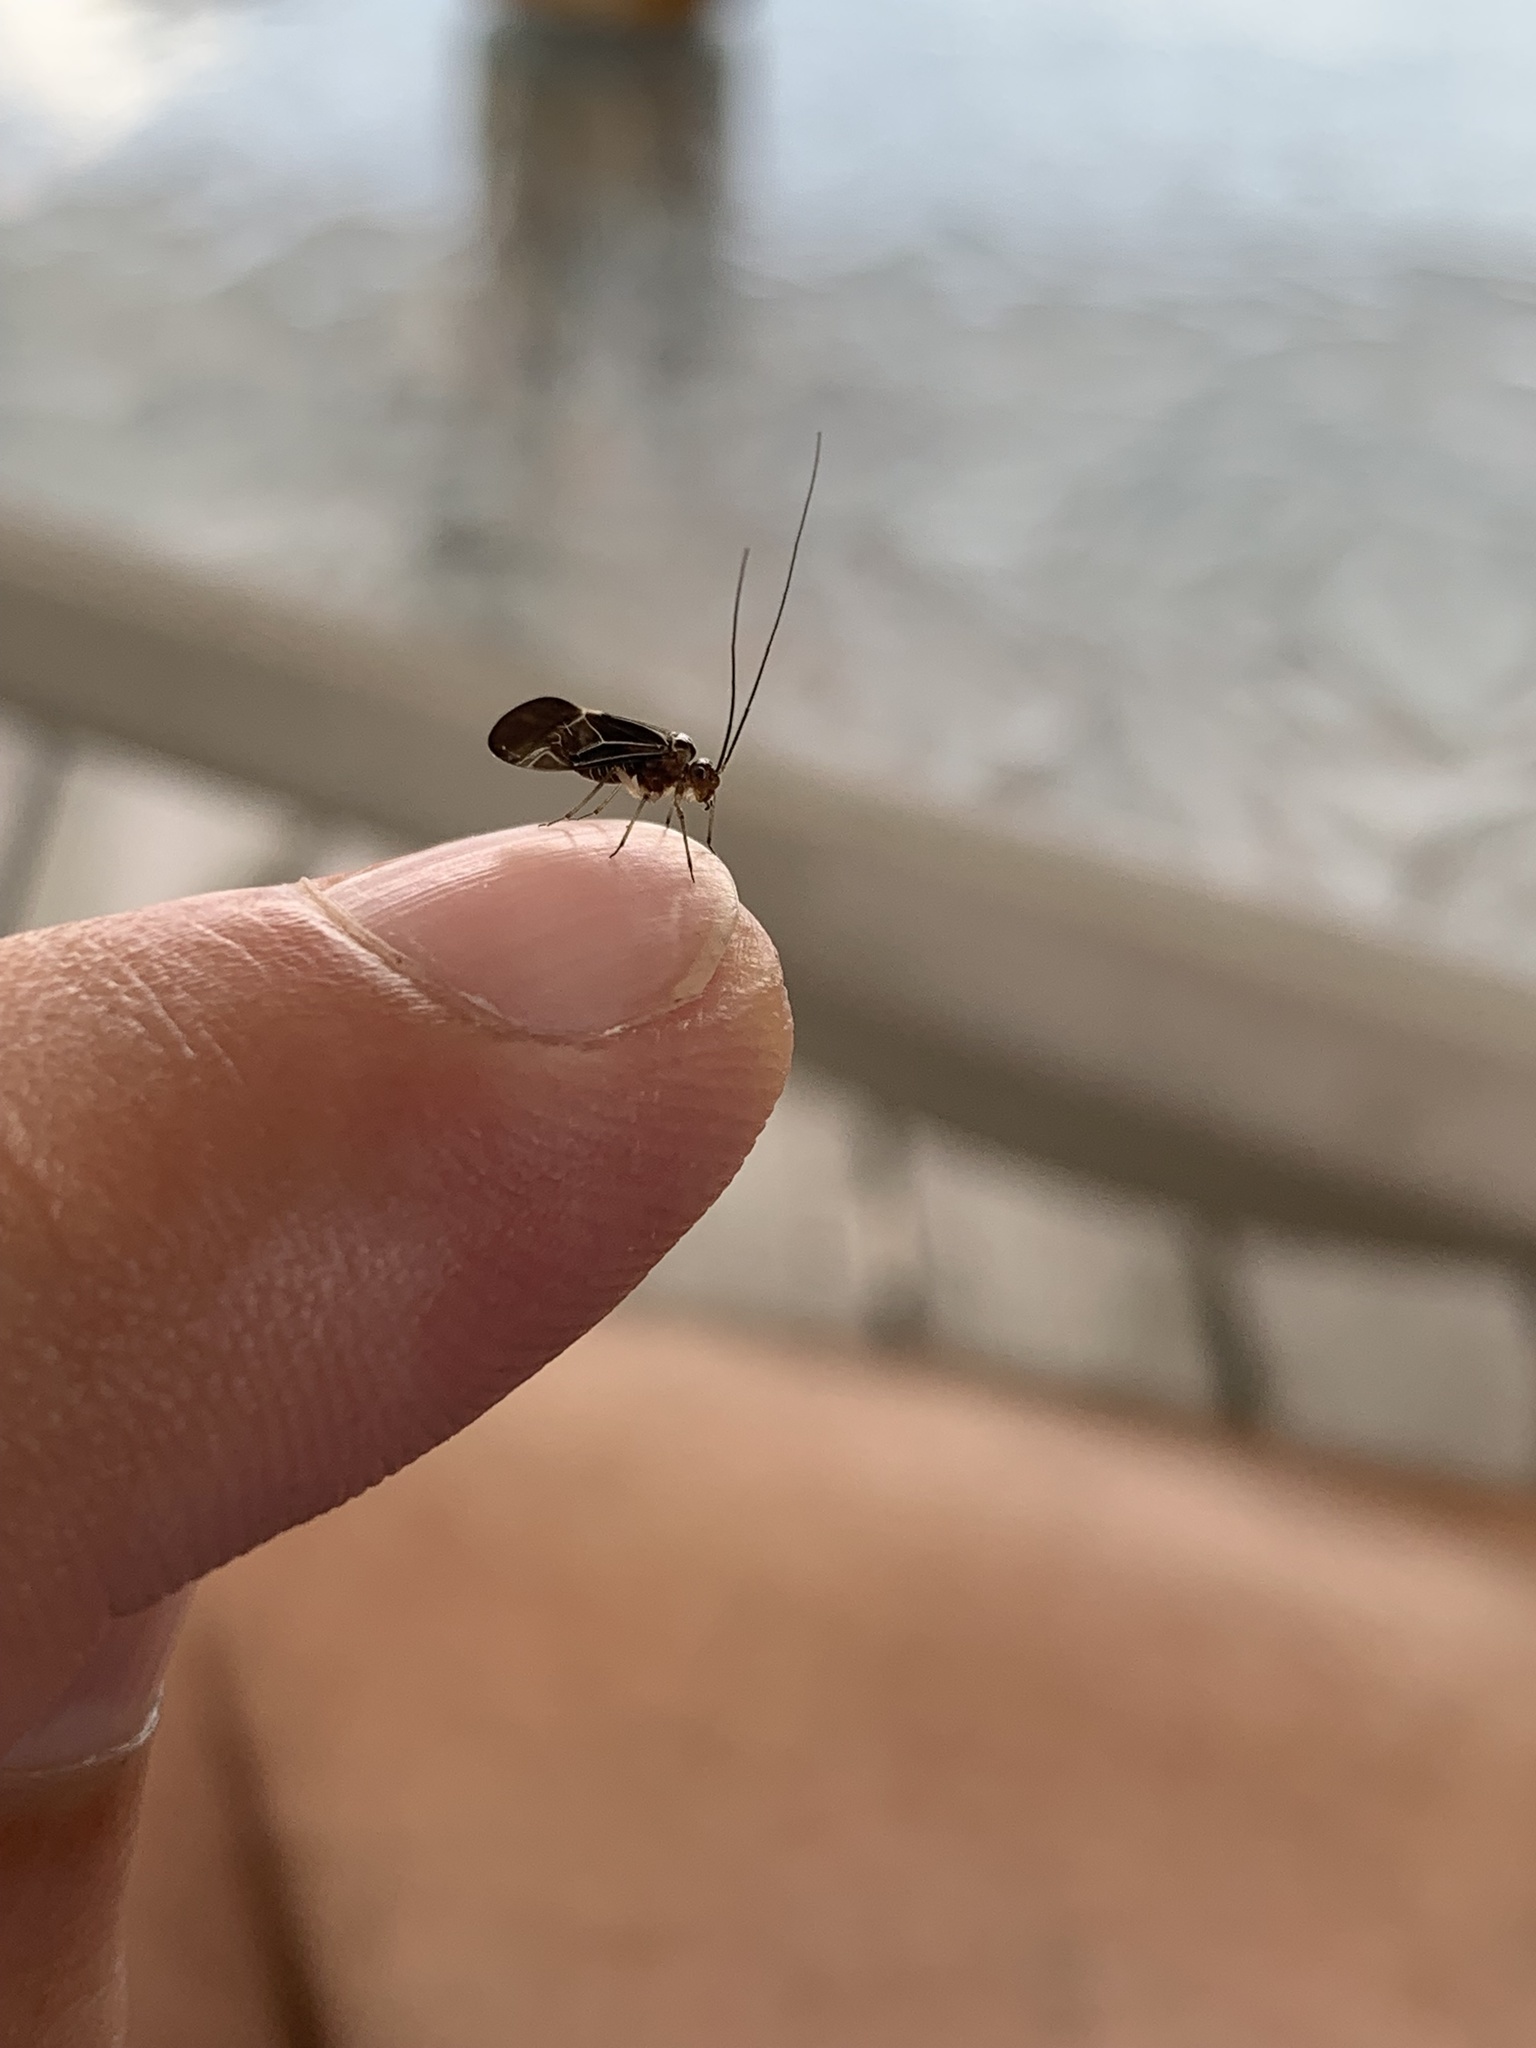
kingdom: Animalia
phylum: Arthropoda
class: Insecta
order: Psocodea
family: Psocidae
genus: Cerastipsocus
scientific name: Cerastipsocus venosus
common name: Tree cattle
